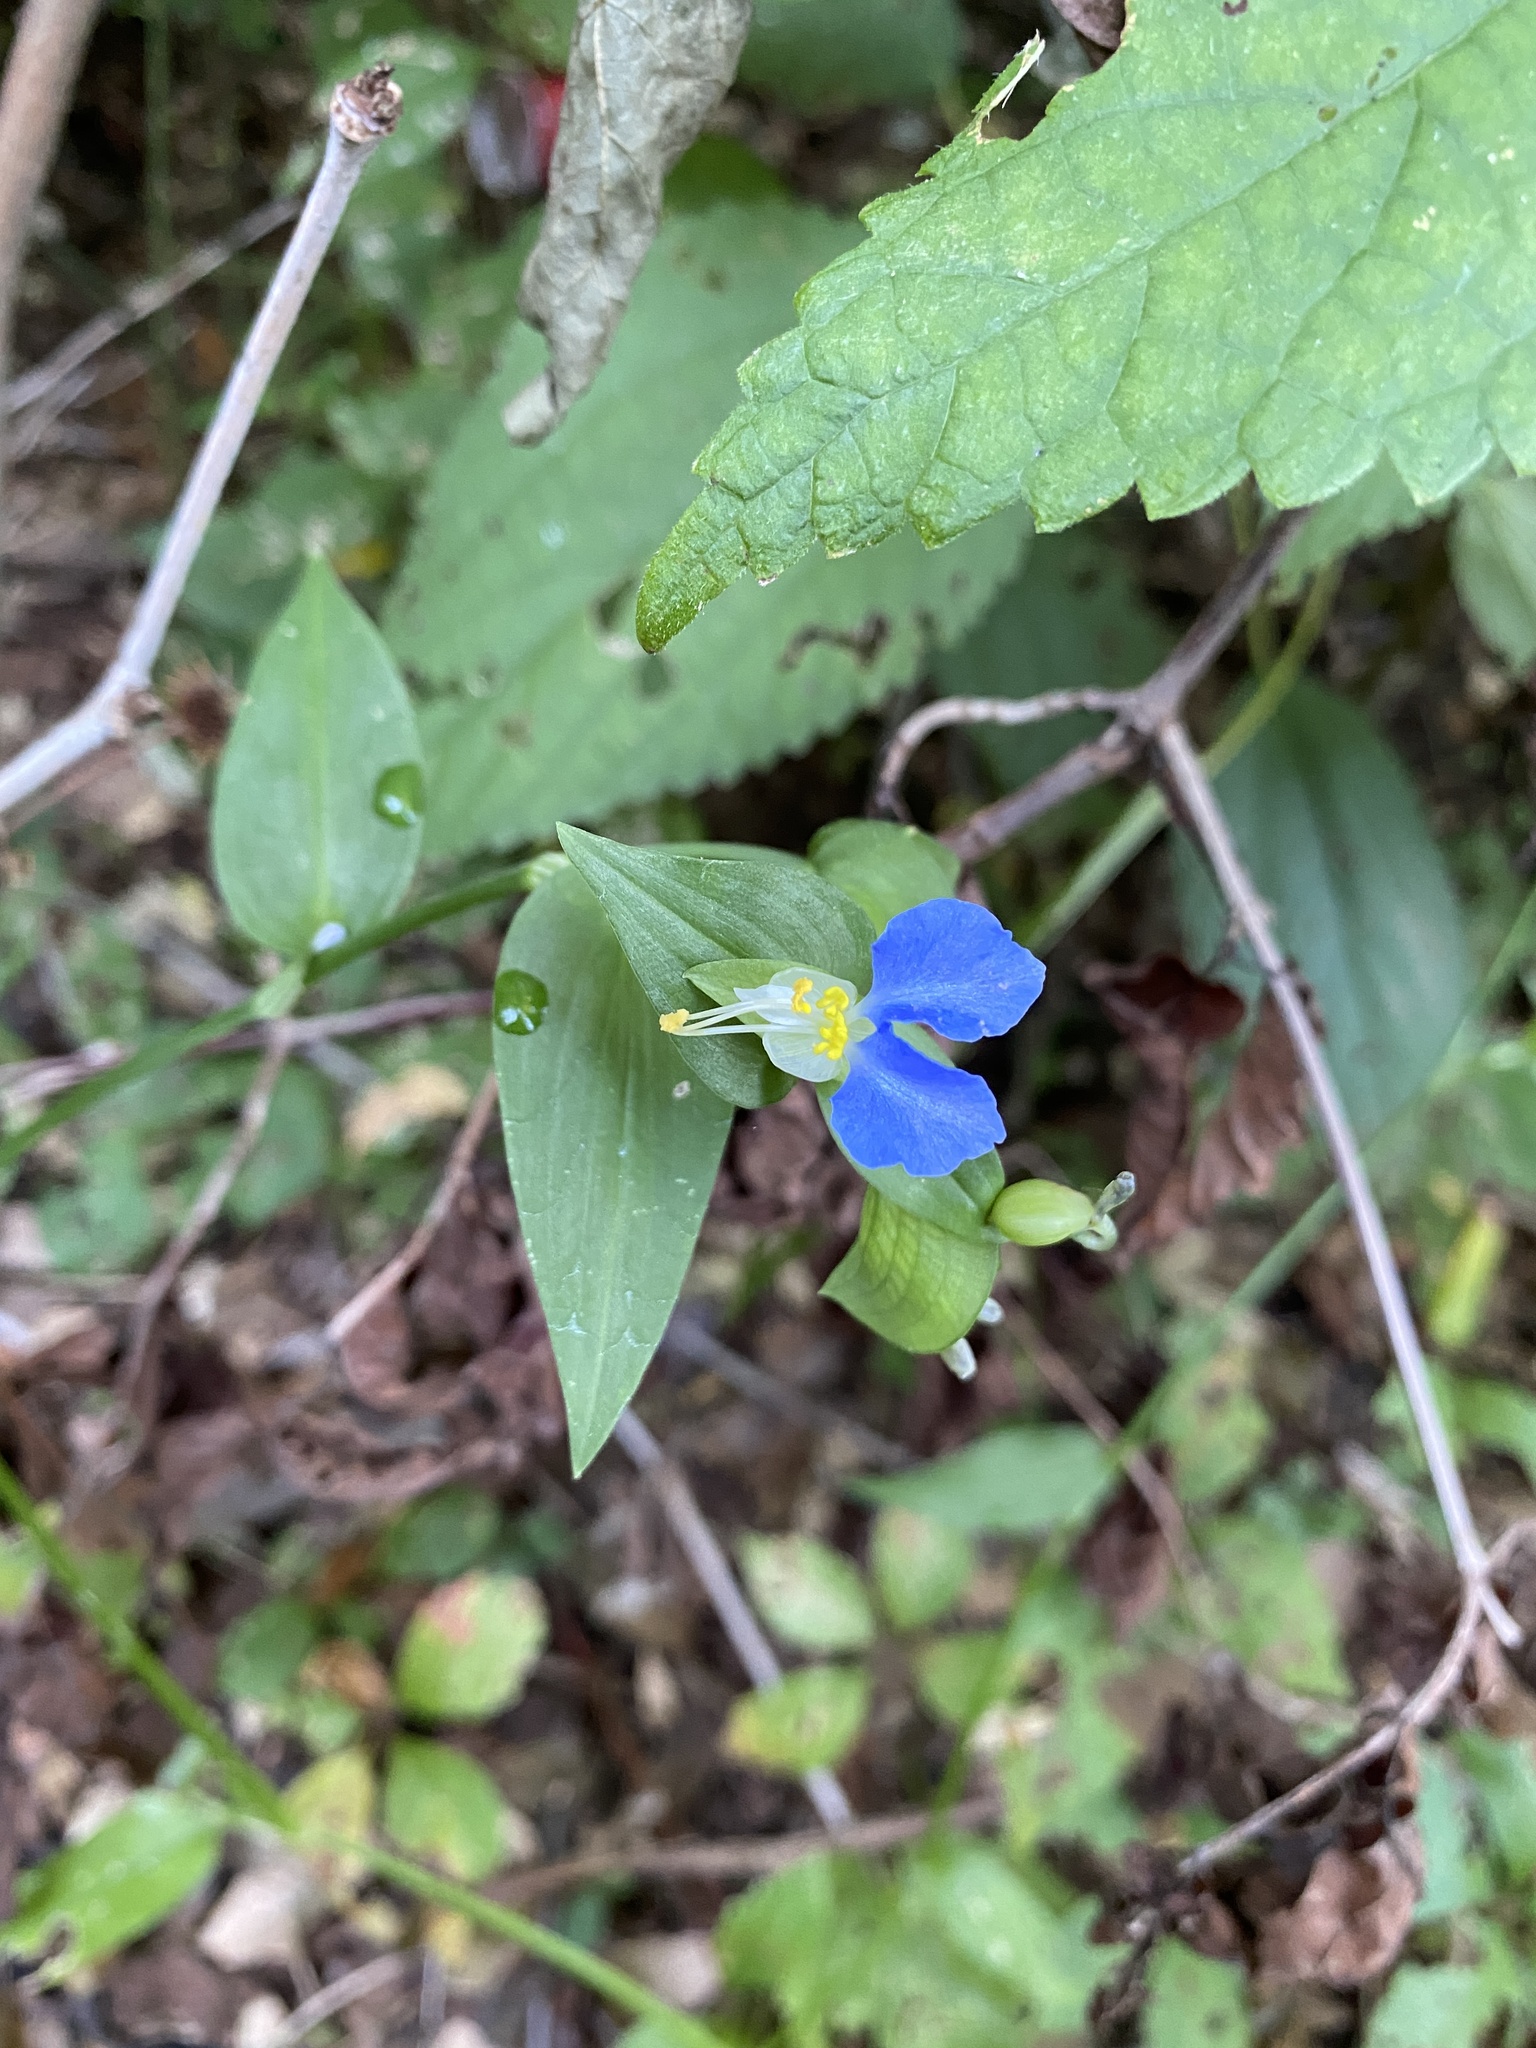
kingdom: Plantae
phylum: Tracheophyta
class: Liliopsida
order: Commelinales
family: Commelinaceae
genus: Commelina
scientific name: Commelina communis
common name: Asiatic dayflower
